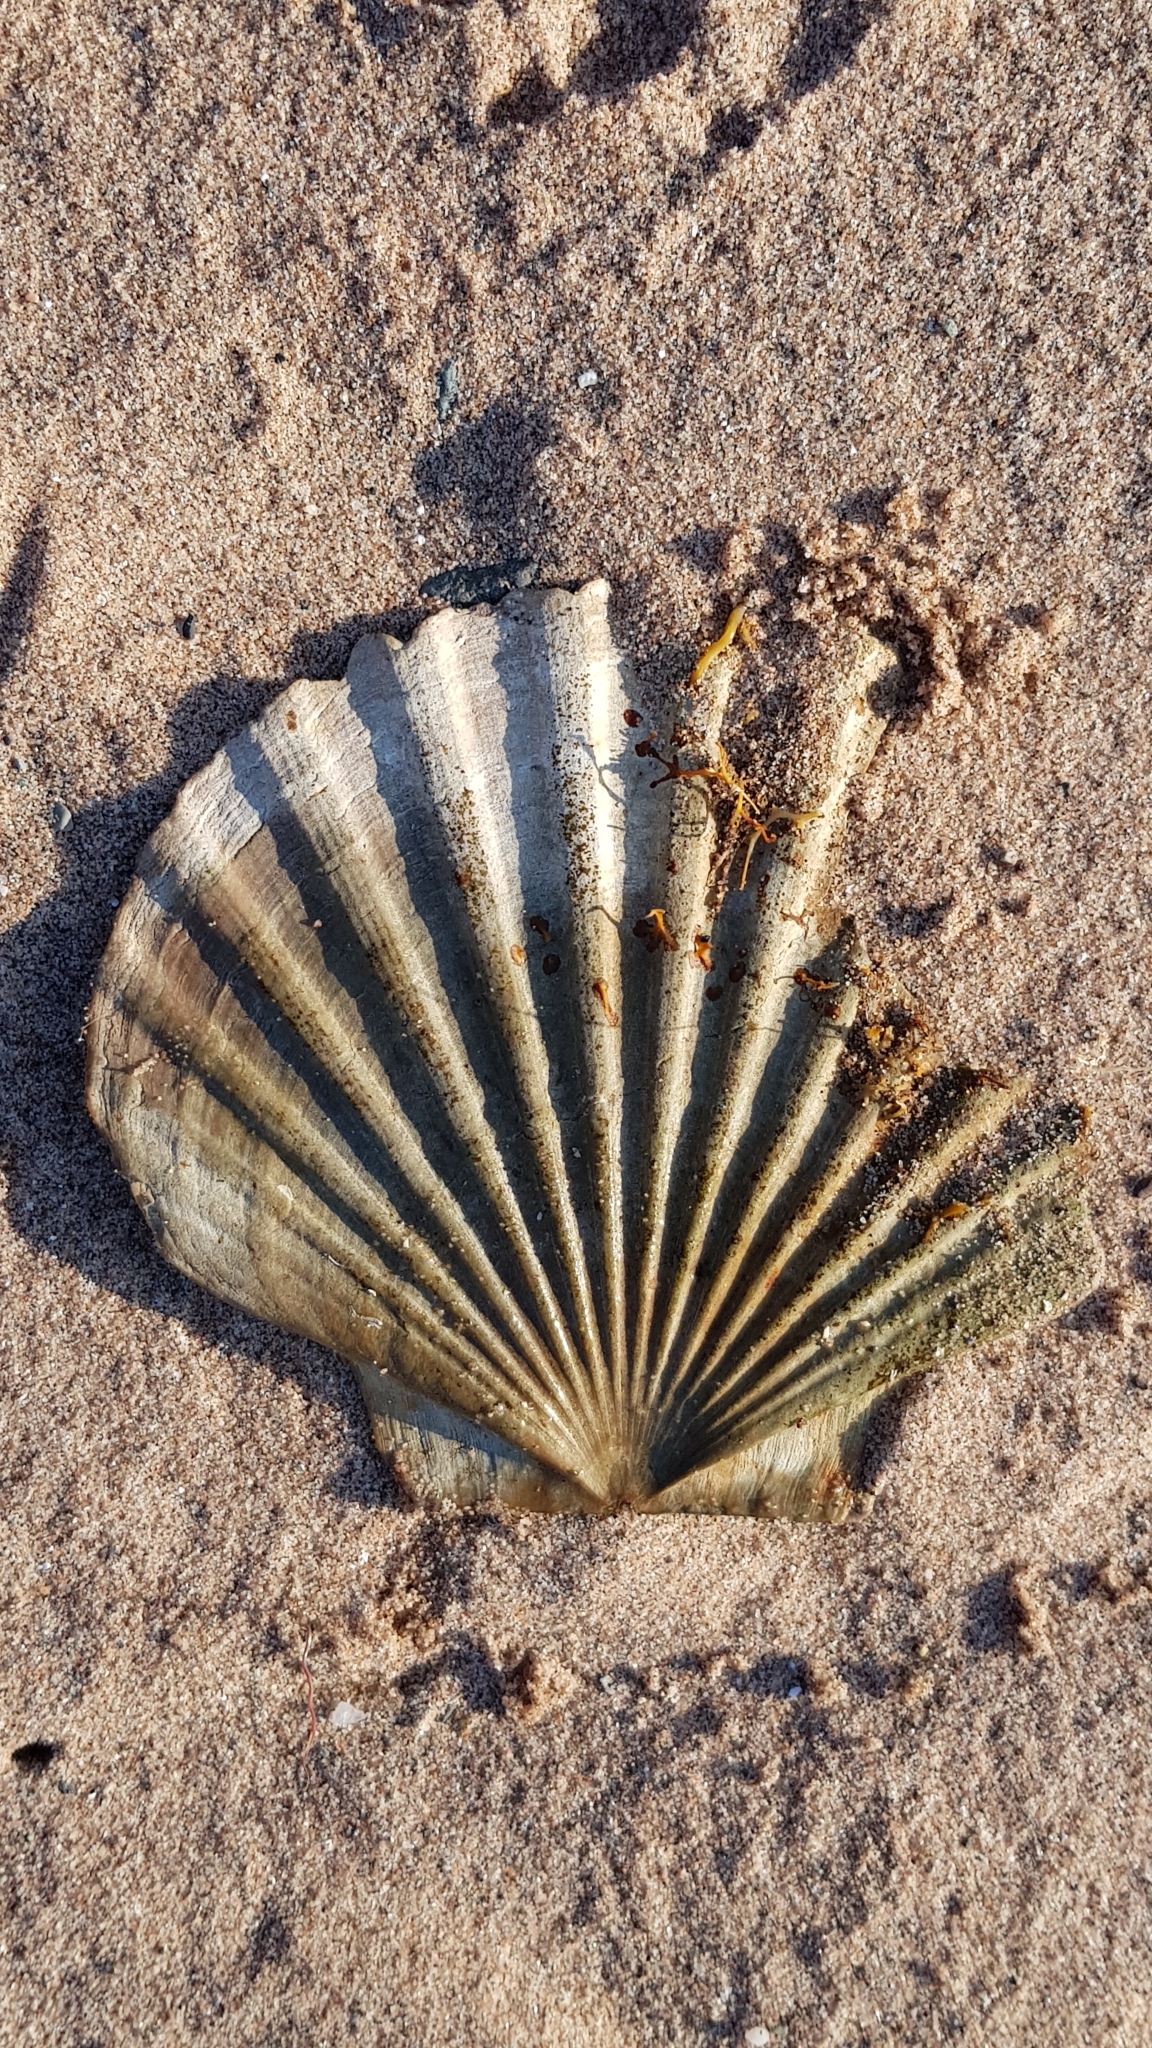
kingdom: Animalia
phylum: Mollusca
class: Bivalvia
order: Pectinida
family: Pectinidae
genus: Pecten
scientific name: Pecten maximus
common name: Great scallop
